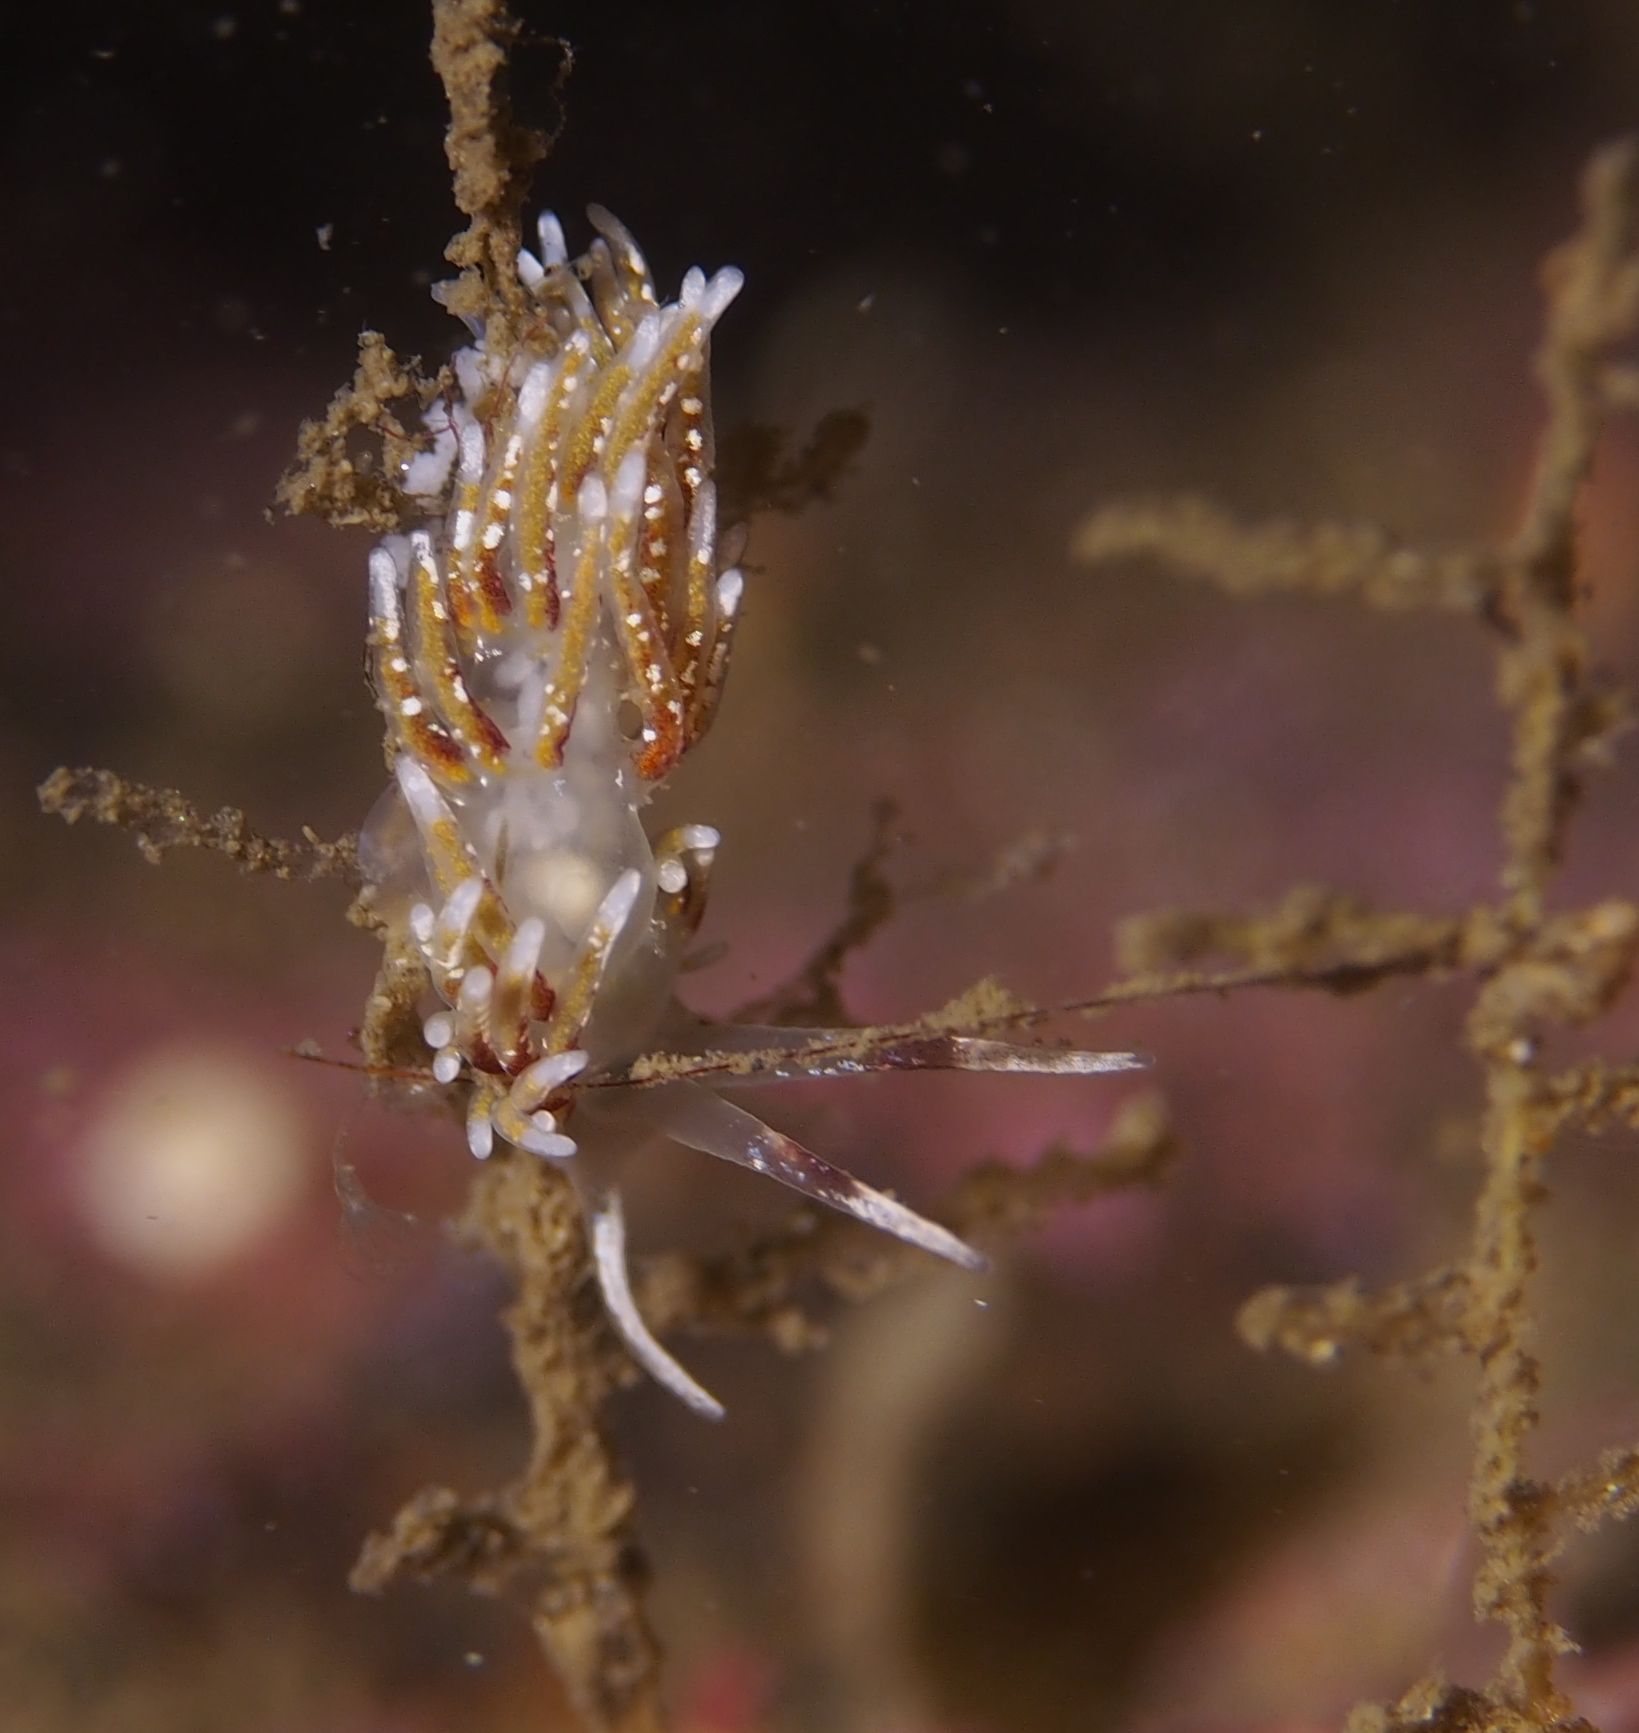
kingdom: Animalia
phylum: Mollusca
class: Gastropoda
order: Nudibranchia
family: Trinchesiidae
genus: Rubramoena
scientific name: Rubramoena rubescens
